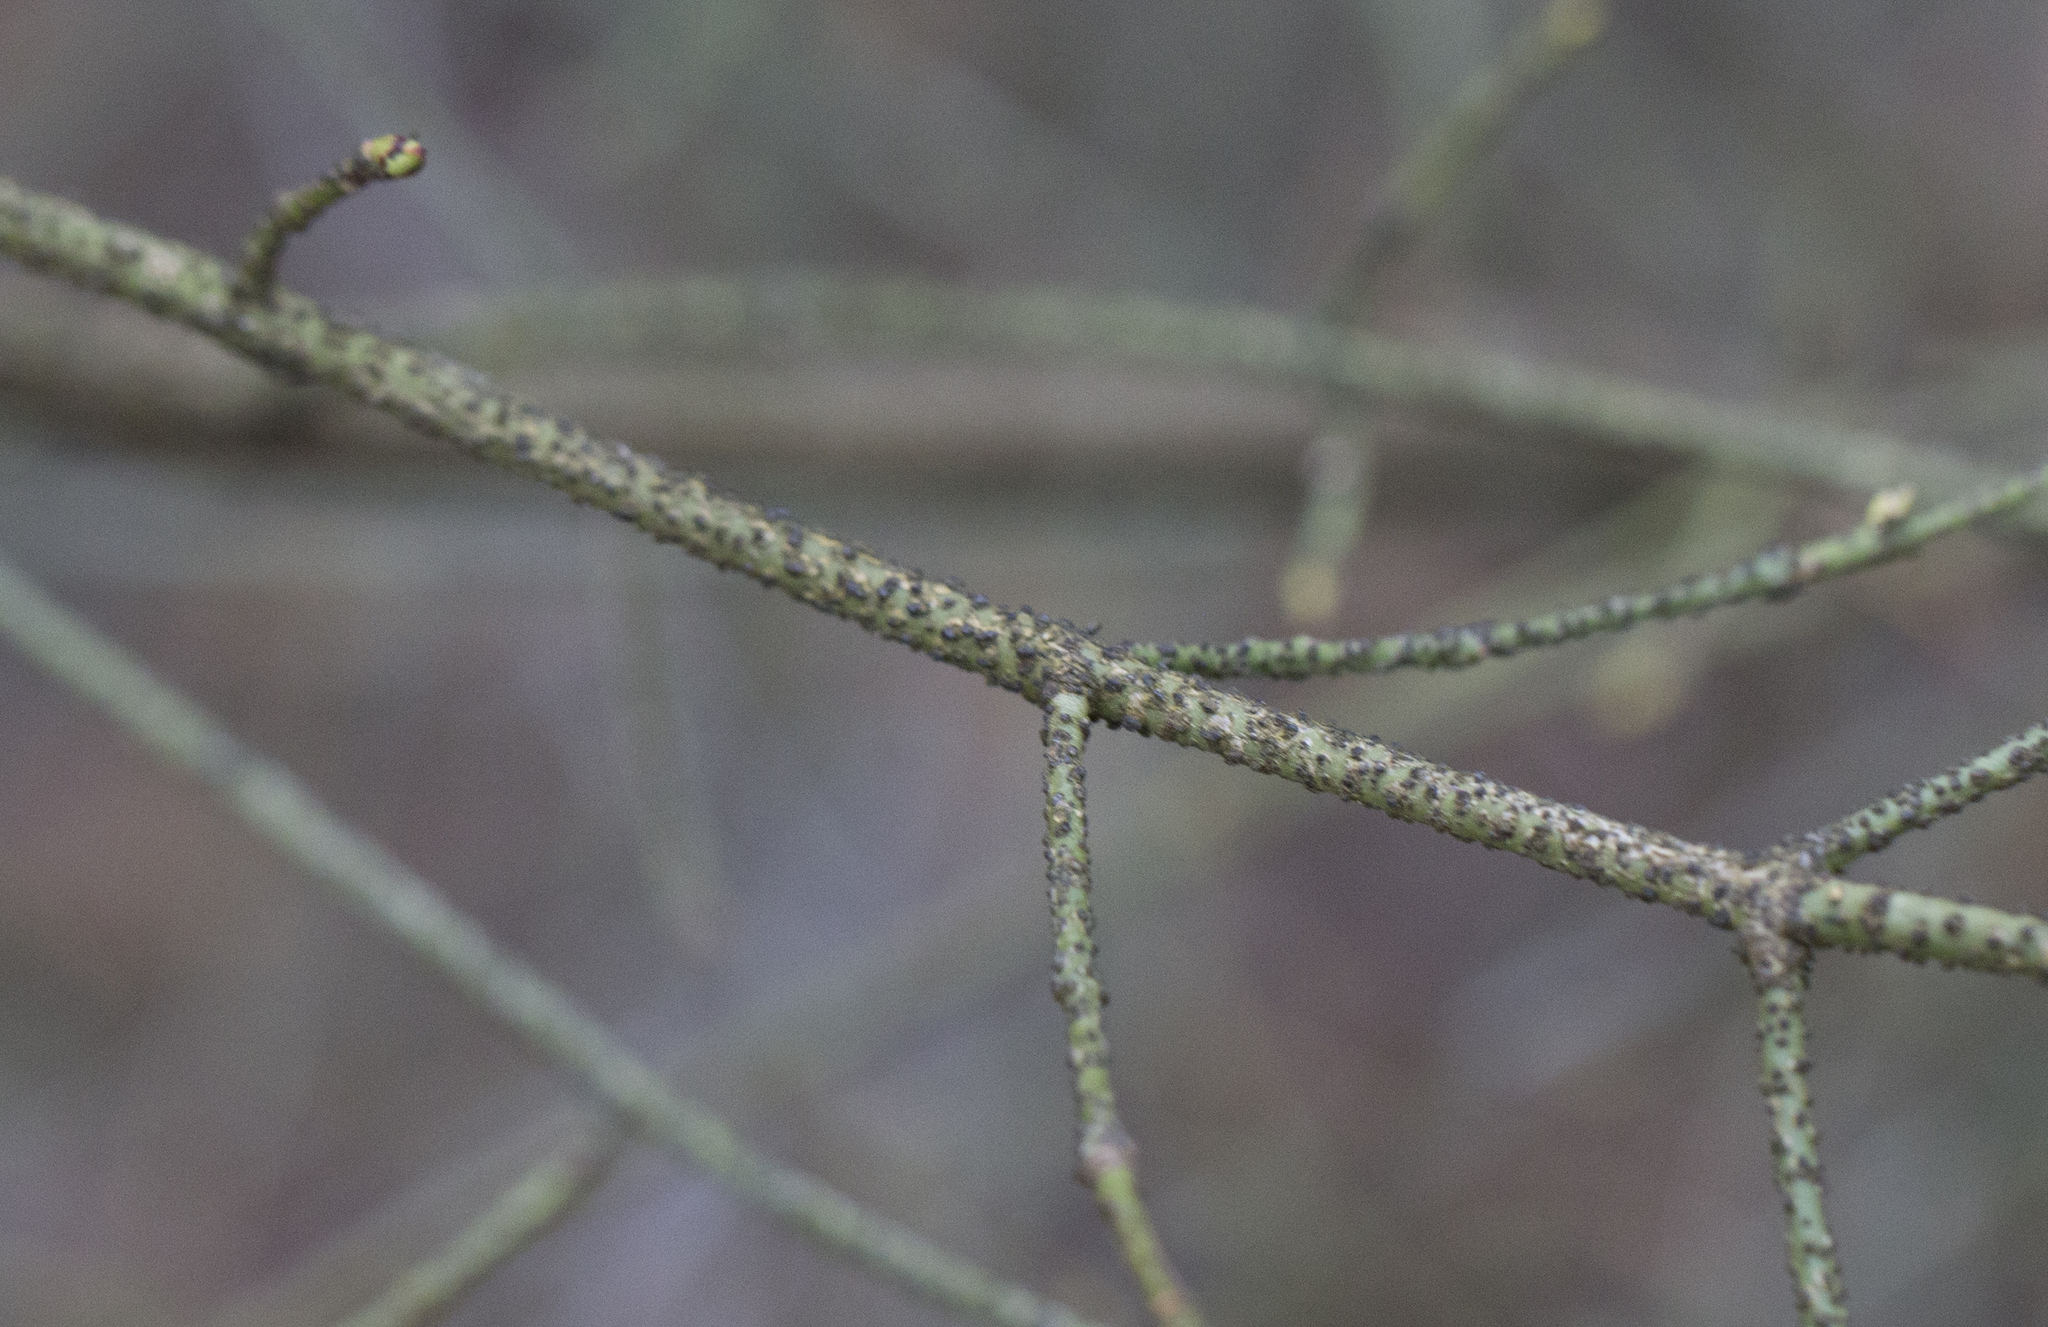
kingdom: Plantae
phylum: Tracheophyta
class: Magnoliopsida
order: Celastrales
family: Celastraceae
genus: Euonymus
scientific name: Euonymus verrucosus
